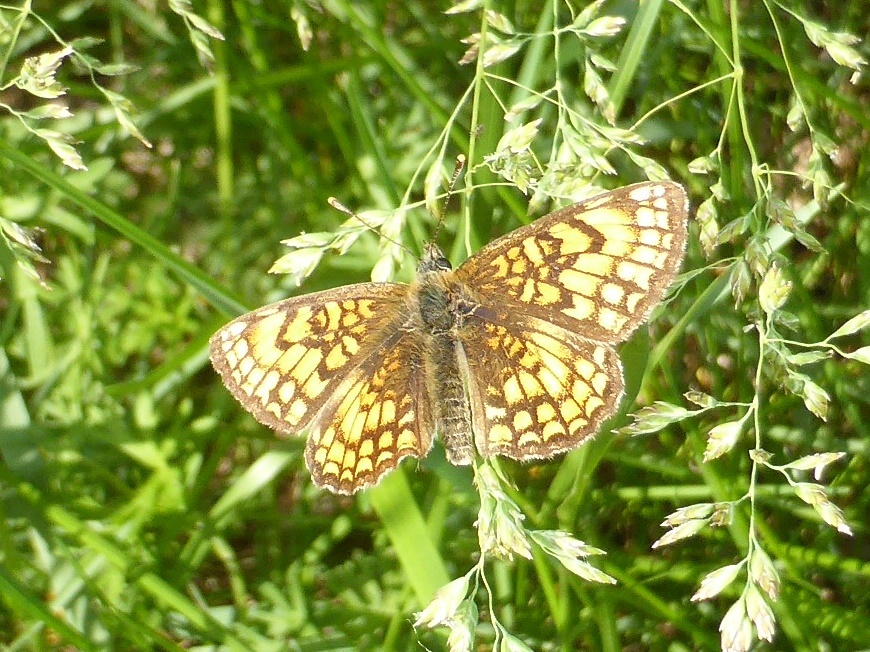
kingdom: Animalia
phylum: Arthropoda
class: Insecta
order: Lepidoptera
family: Nymphalidae
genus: Mellicta
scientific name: Mellicta athalia
